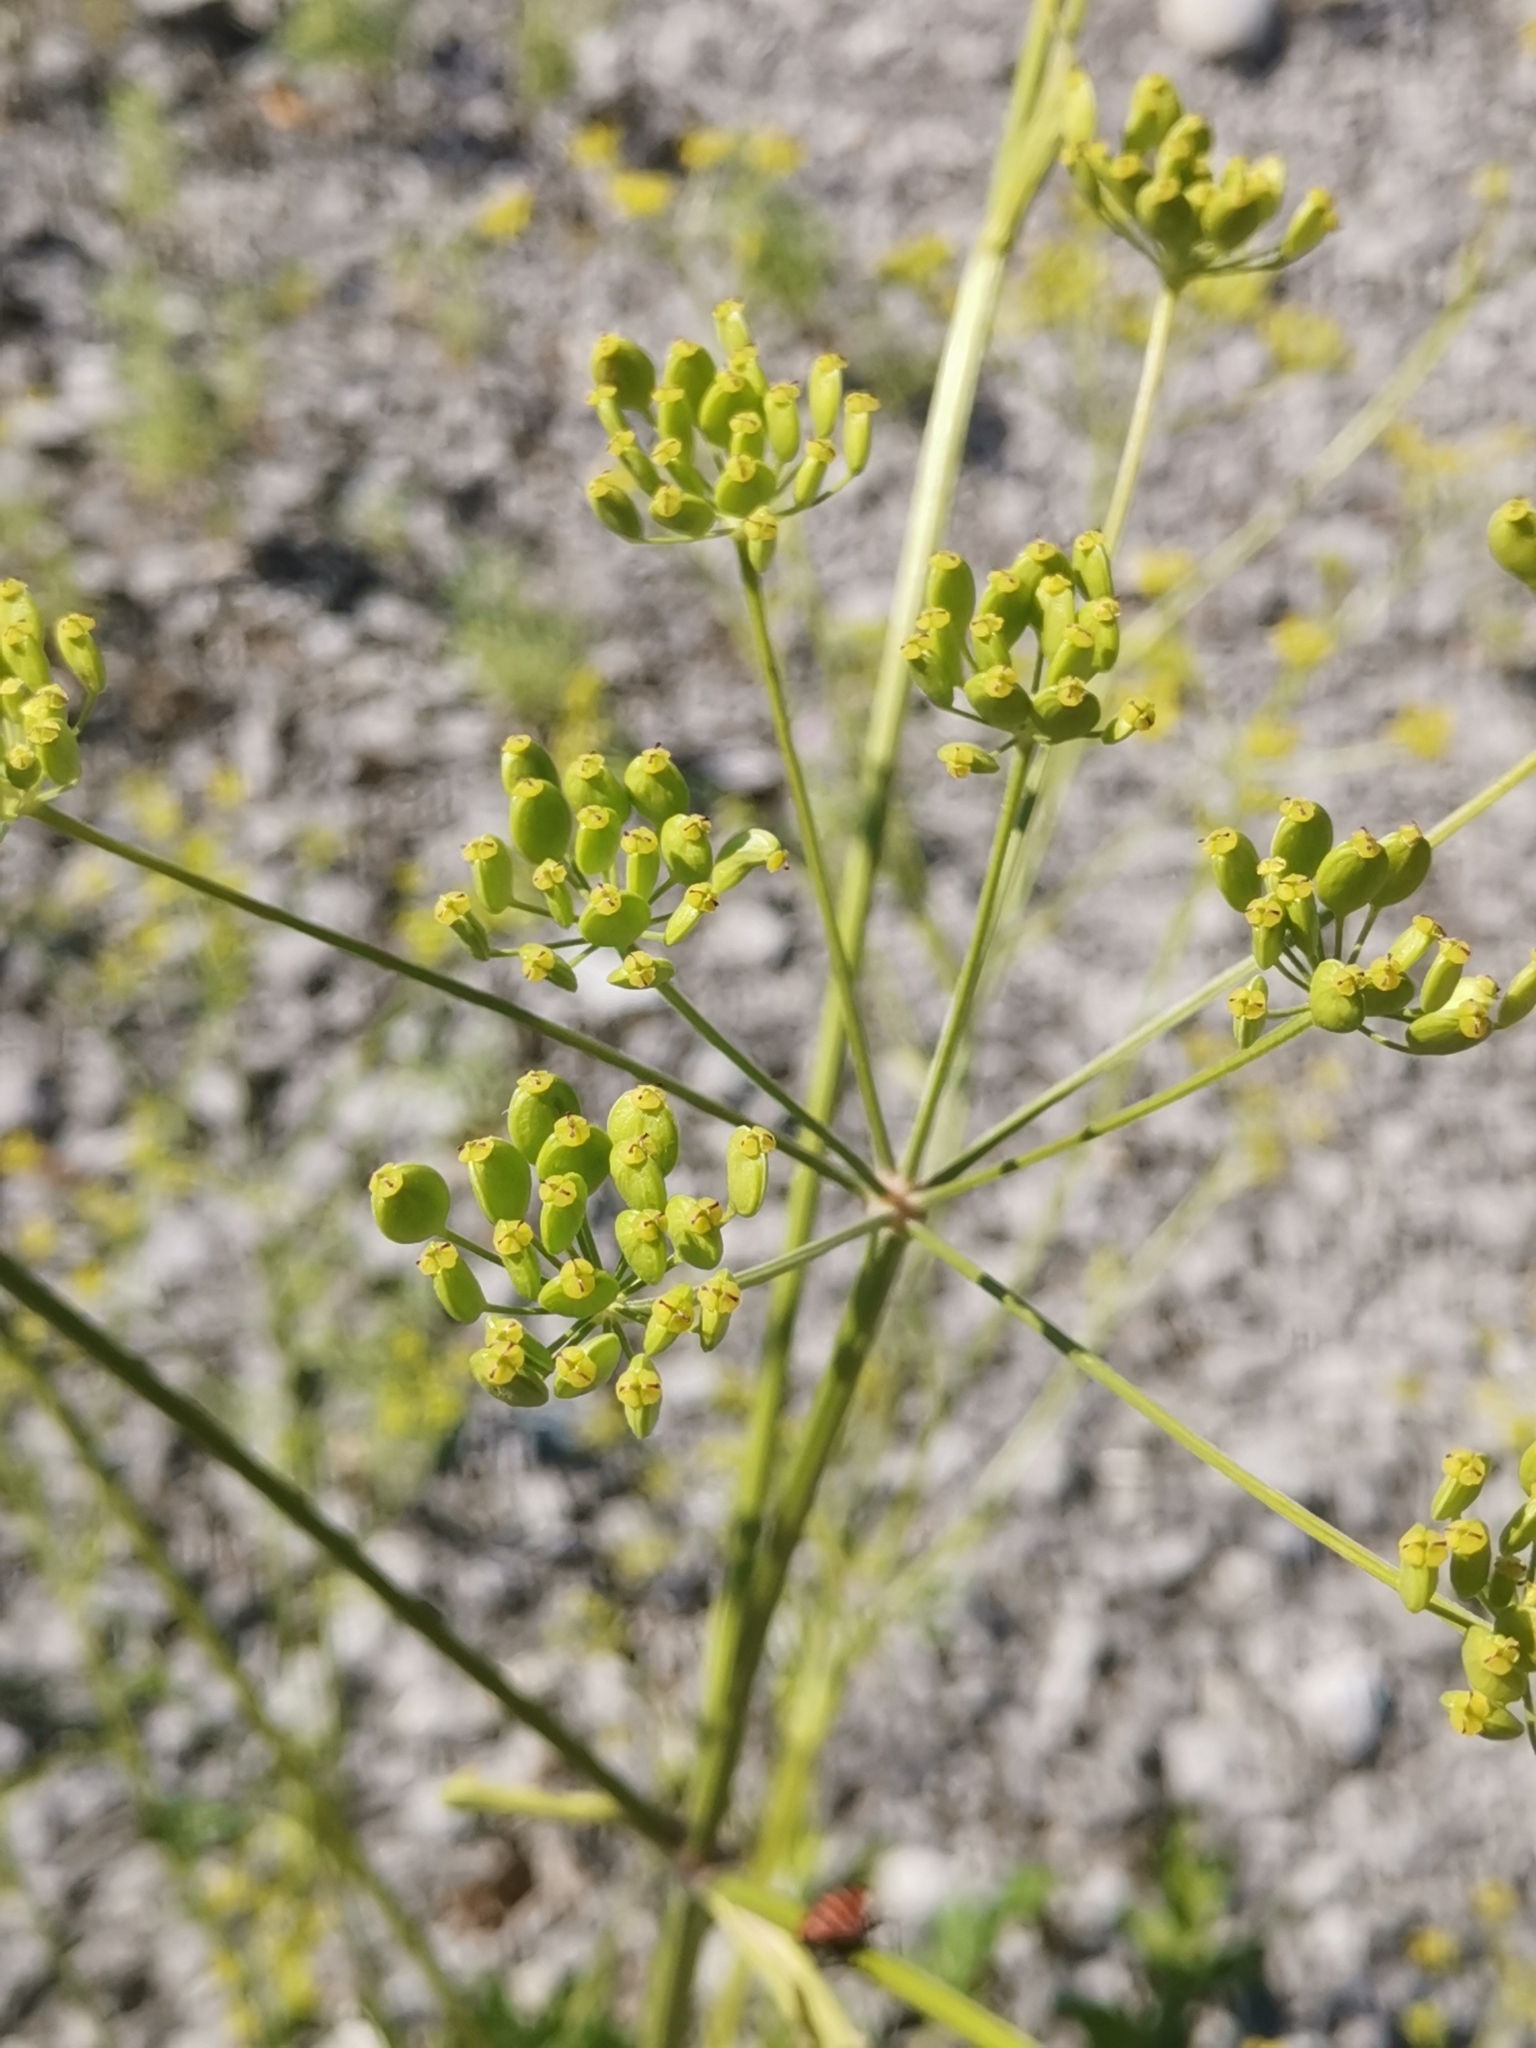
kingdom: Plantae
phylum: Tracheophyta
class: Magnoliopsida
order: Apiales
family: Apiaceae
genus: Pastinaca
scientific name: Pastinaca sativa
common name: Wild parsnip
